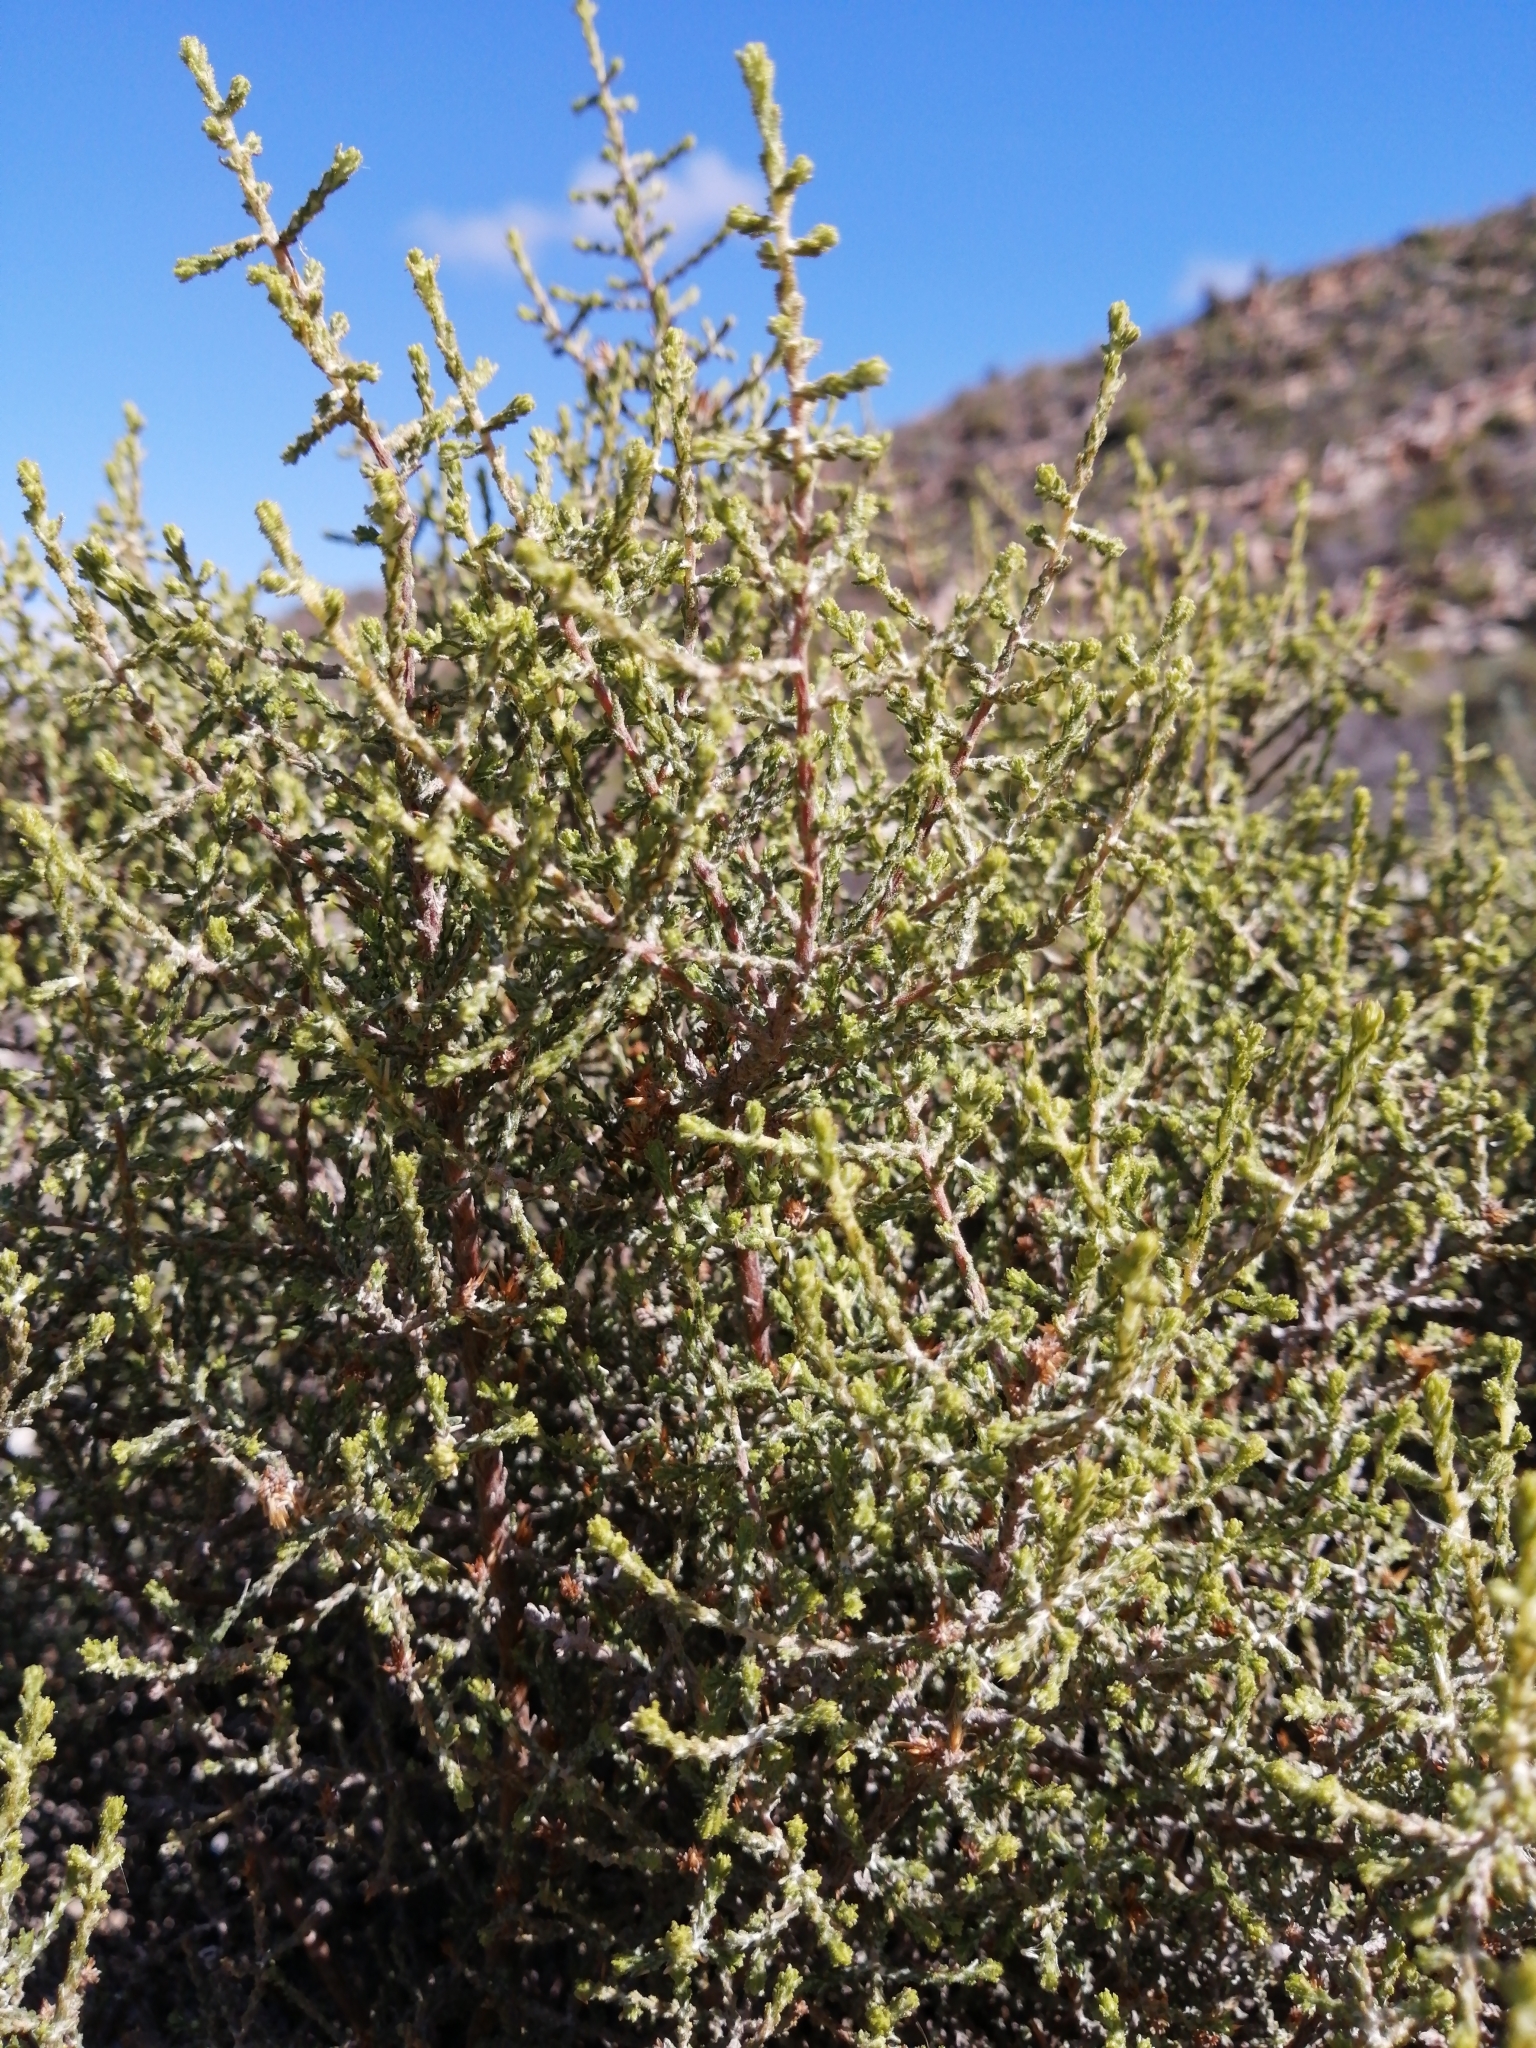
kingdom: Plantae
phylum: Tracheophyta
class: Magnoliopsida
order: Asterales
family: Asteraceae
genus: Myrovernix
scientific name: Myrovernix intricata
